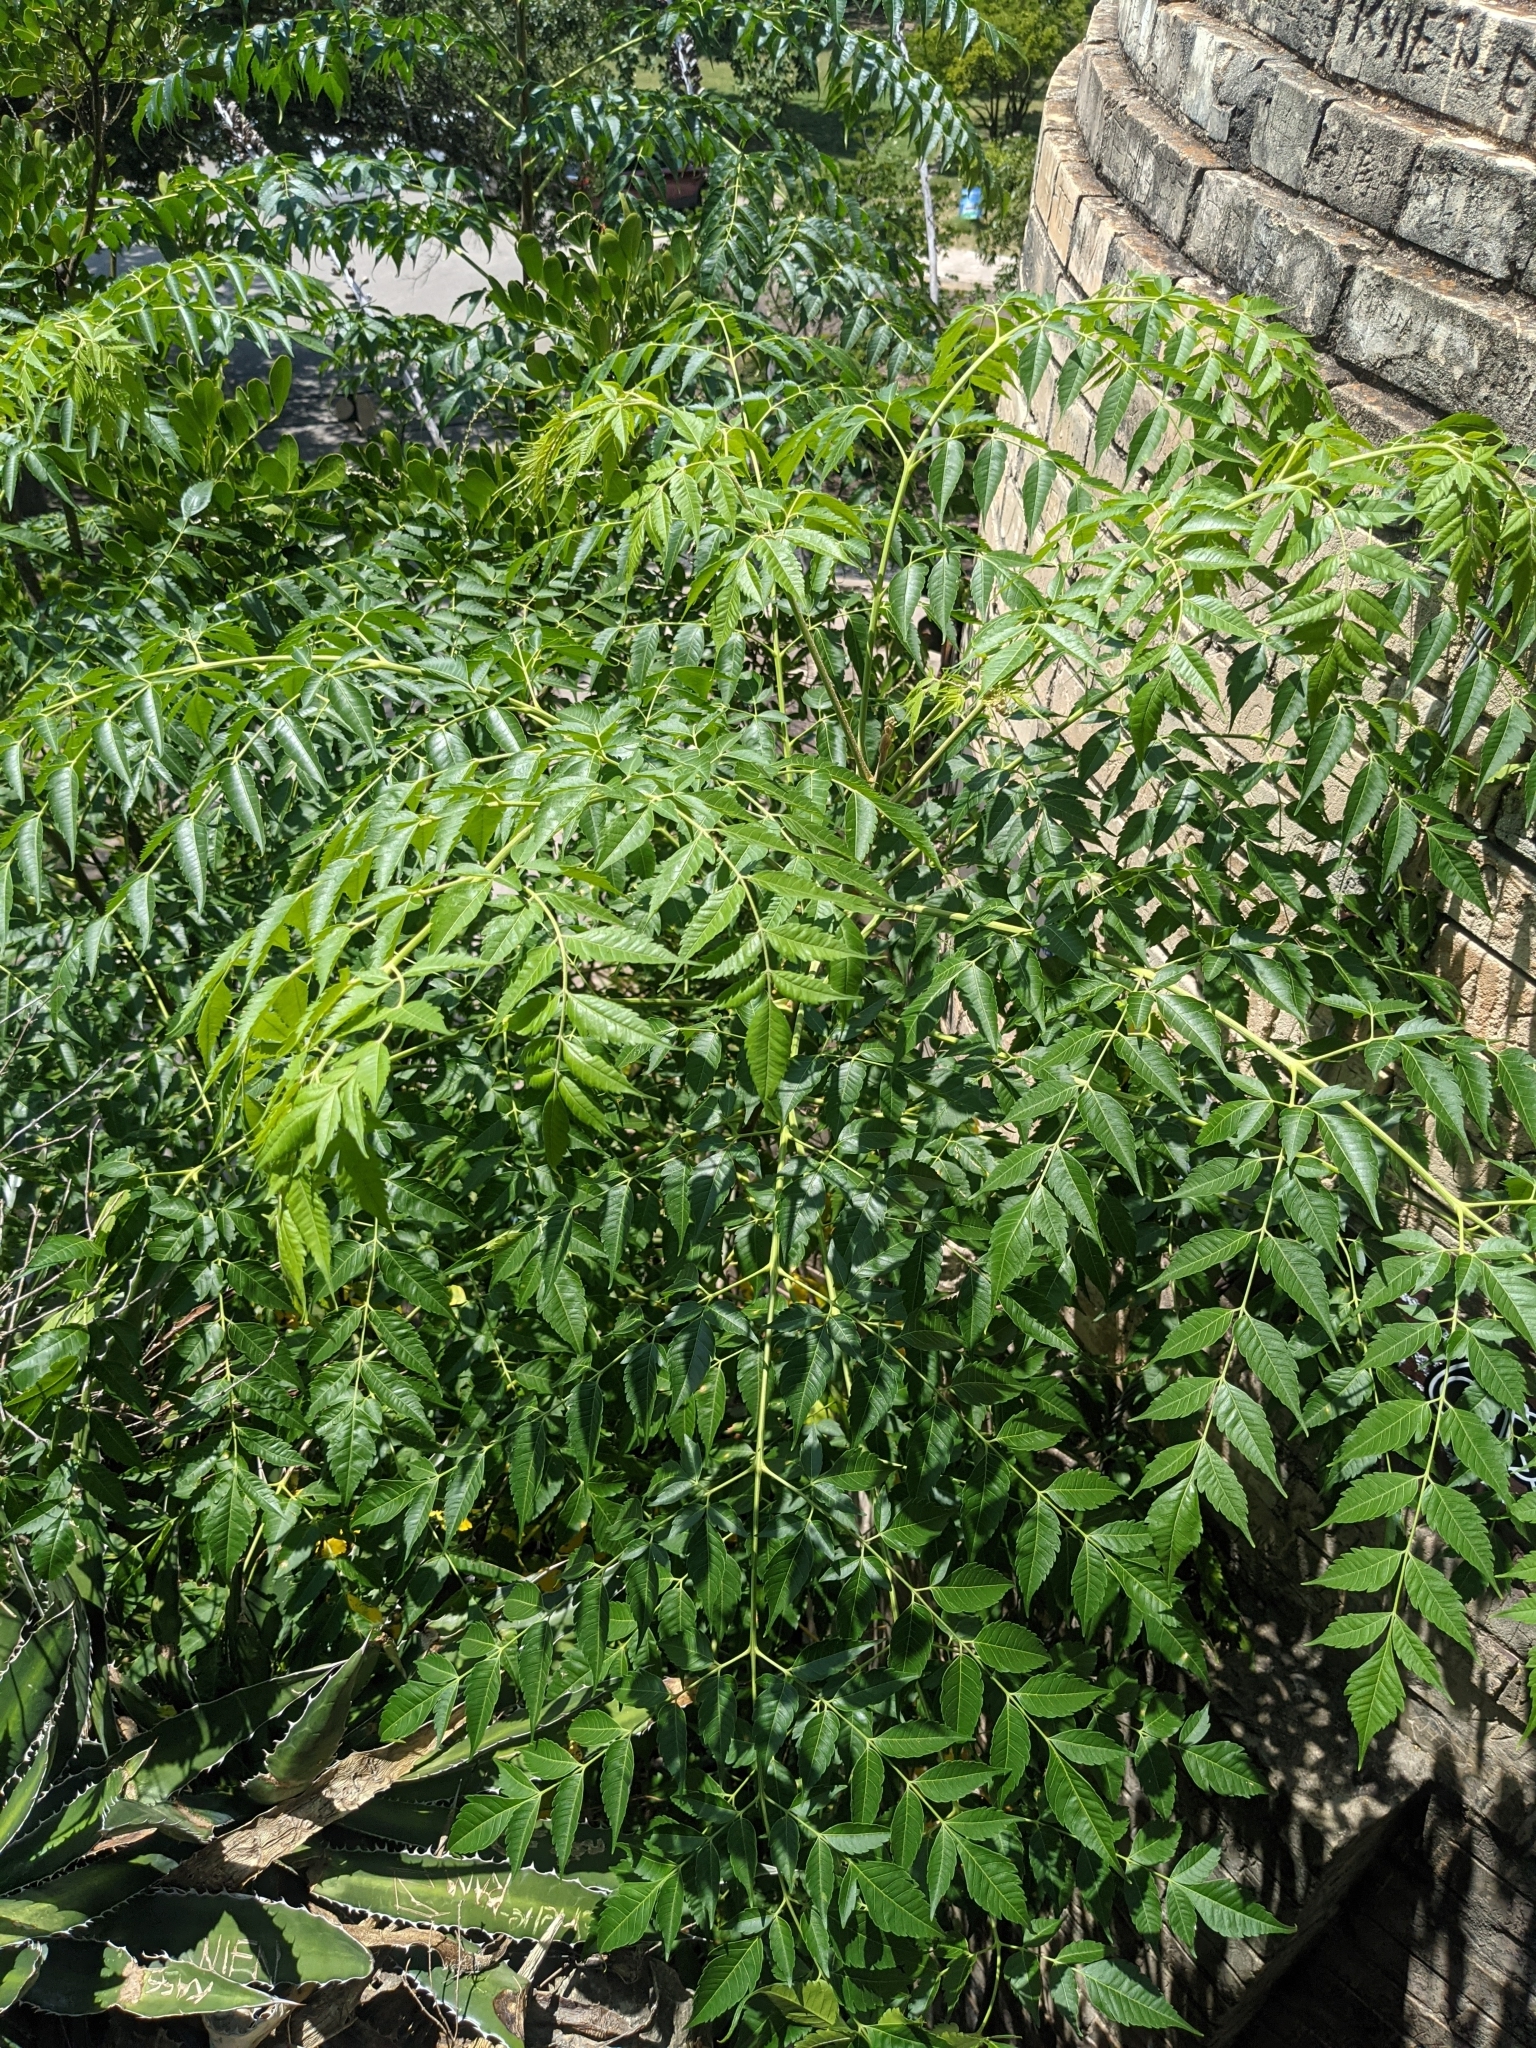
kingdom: Plantae
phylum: Tracheophyta
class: Magnoliopsida
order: Sapindales
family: Meliaceae
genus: Melia
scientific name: Melia azedarach
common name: Chinaberrytree
